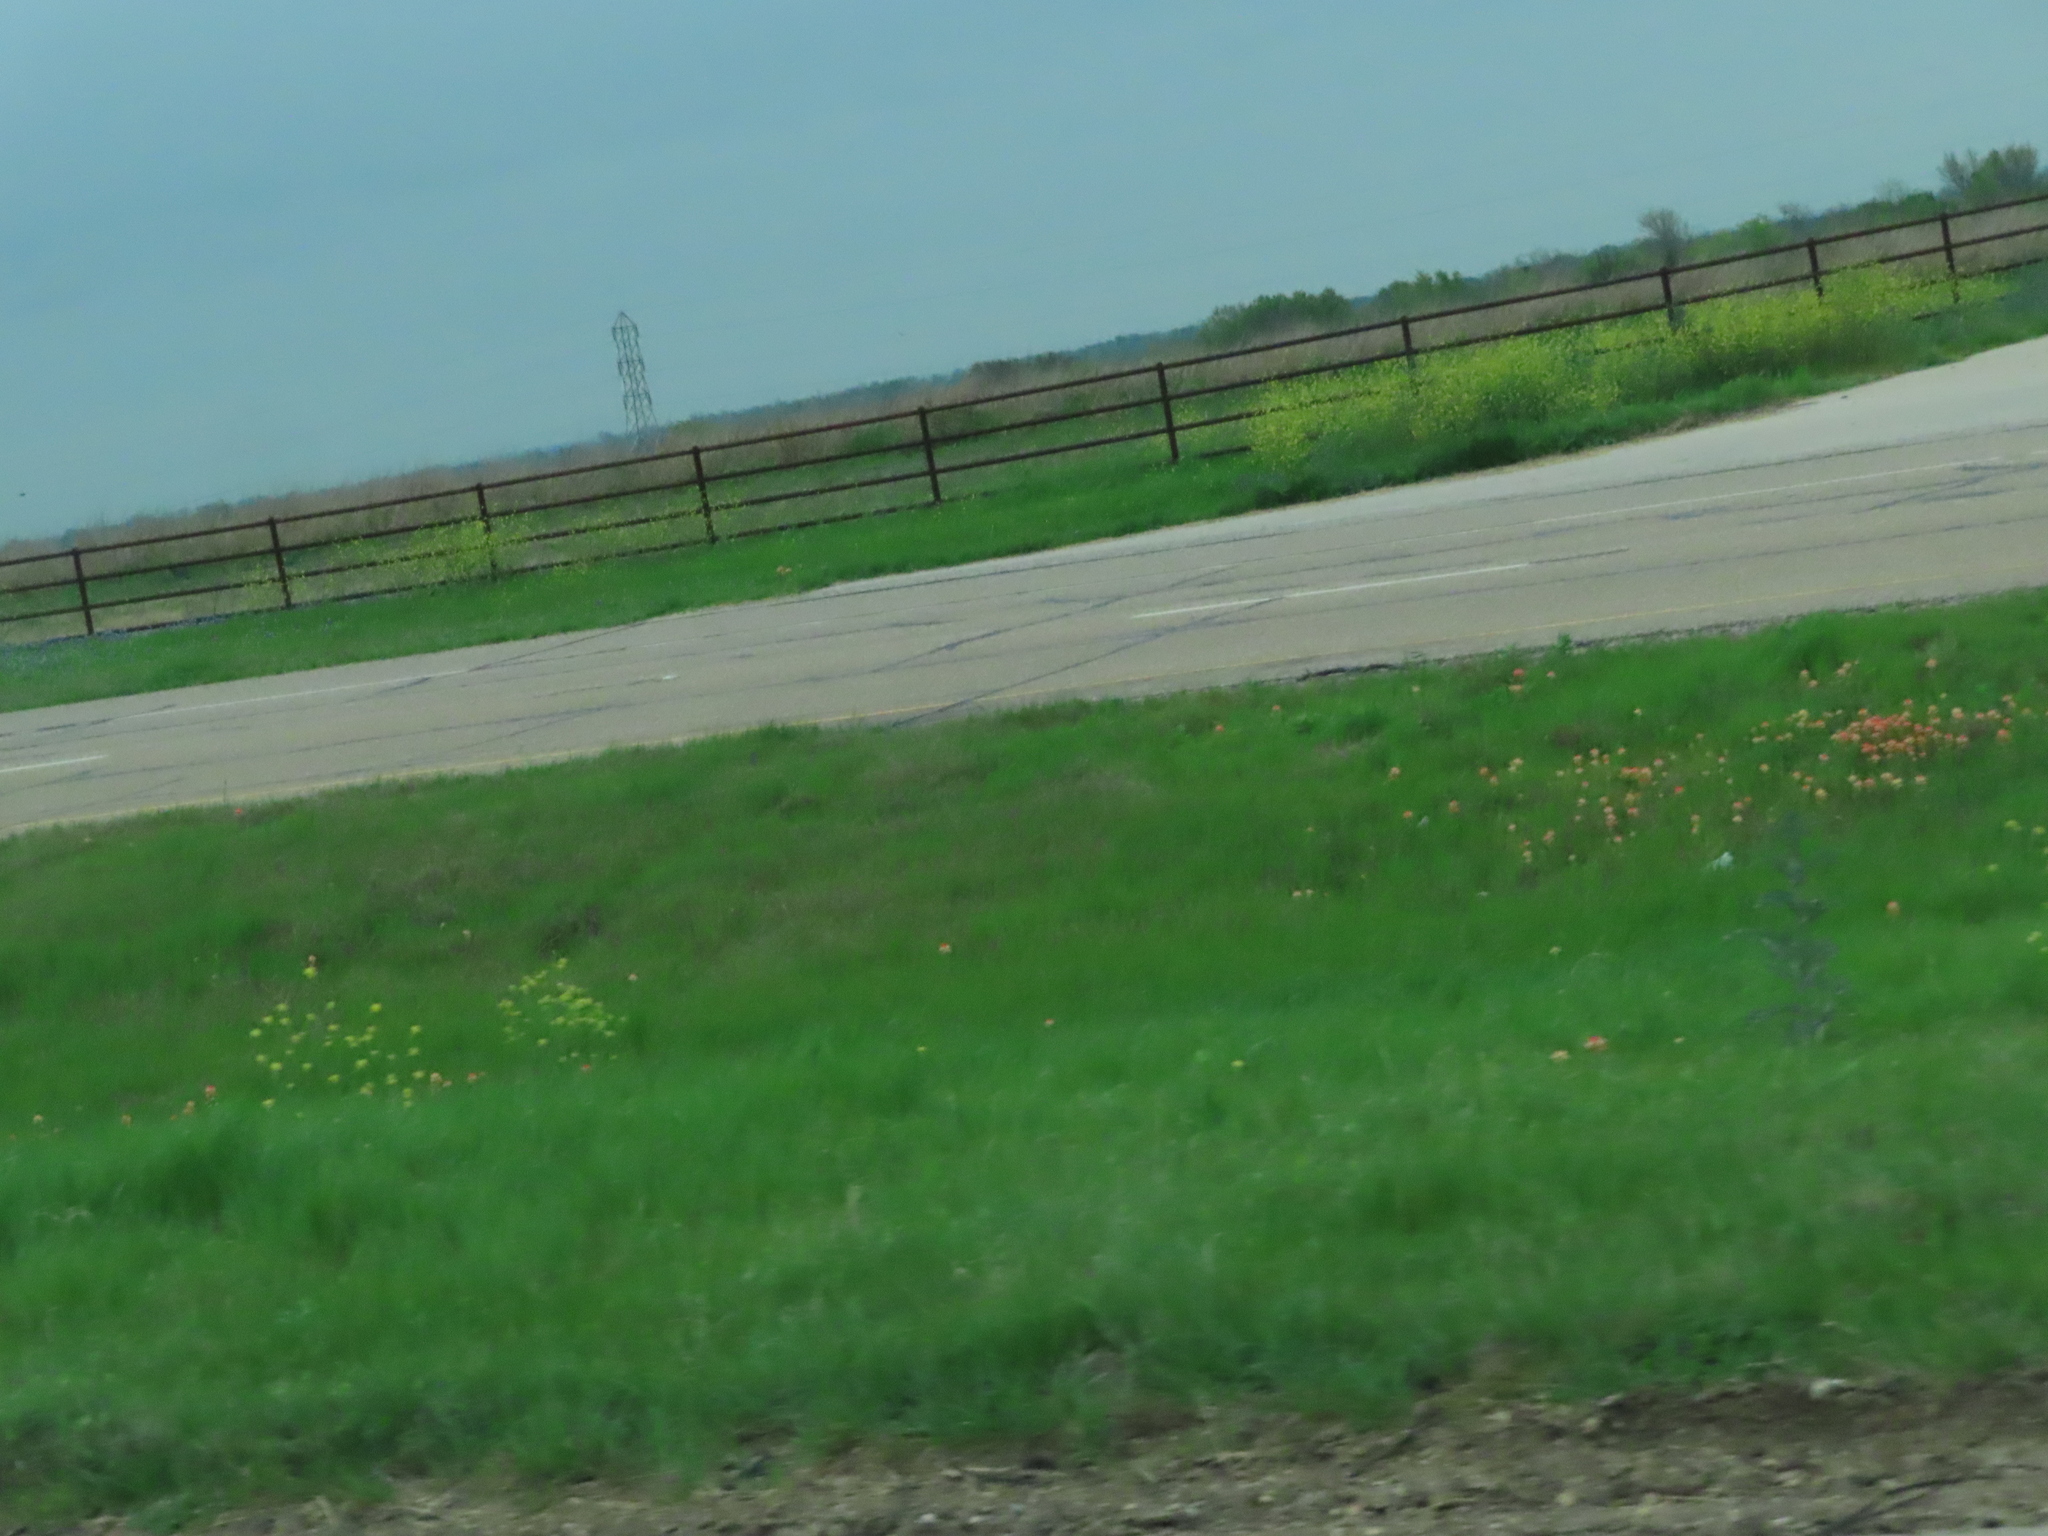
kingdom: Plantae
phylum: Tracheophyta
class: Magnoliopsida
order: Lamiales
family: Orobanchaceae
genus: Castilleja
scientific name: Castilleja indivisa
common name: Texas paintbrush
